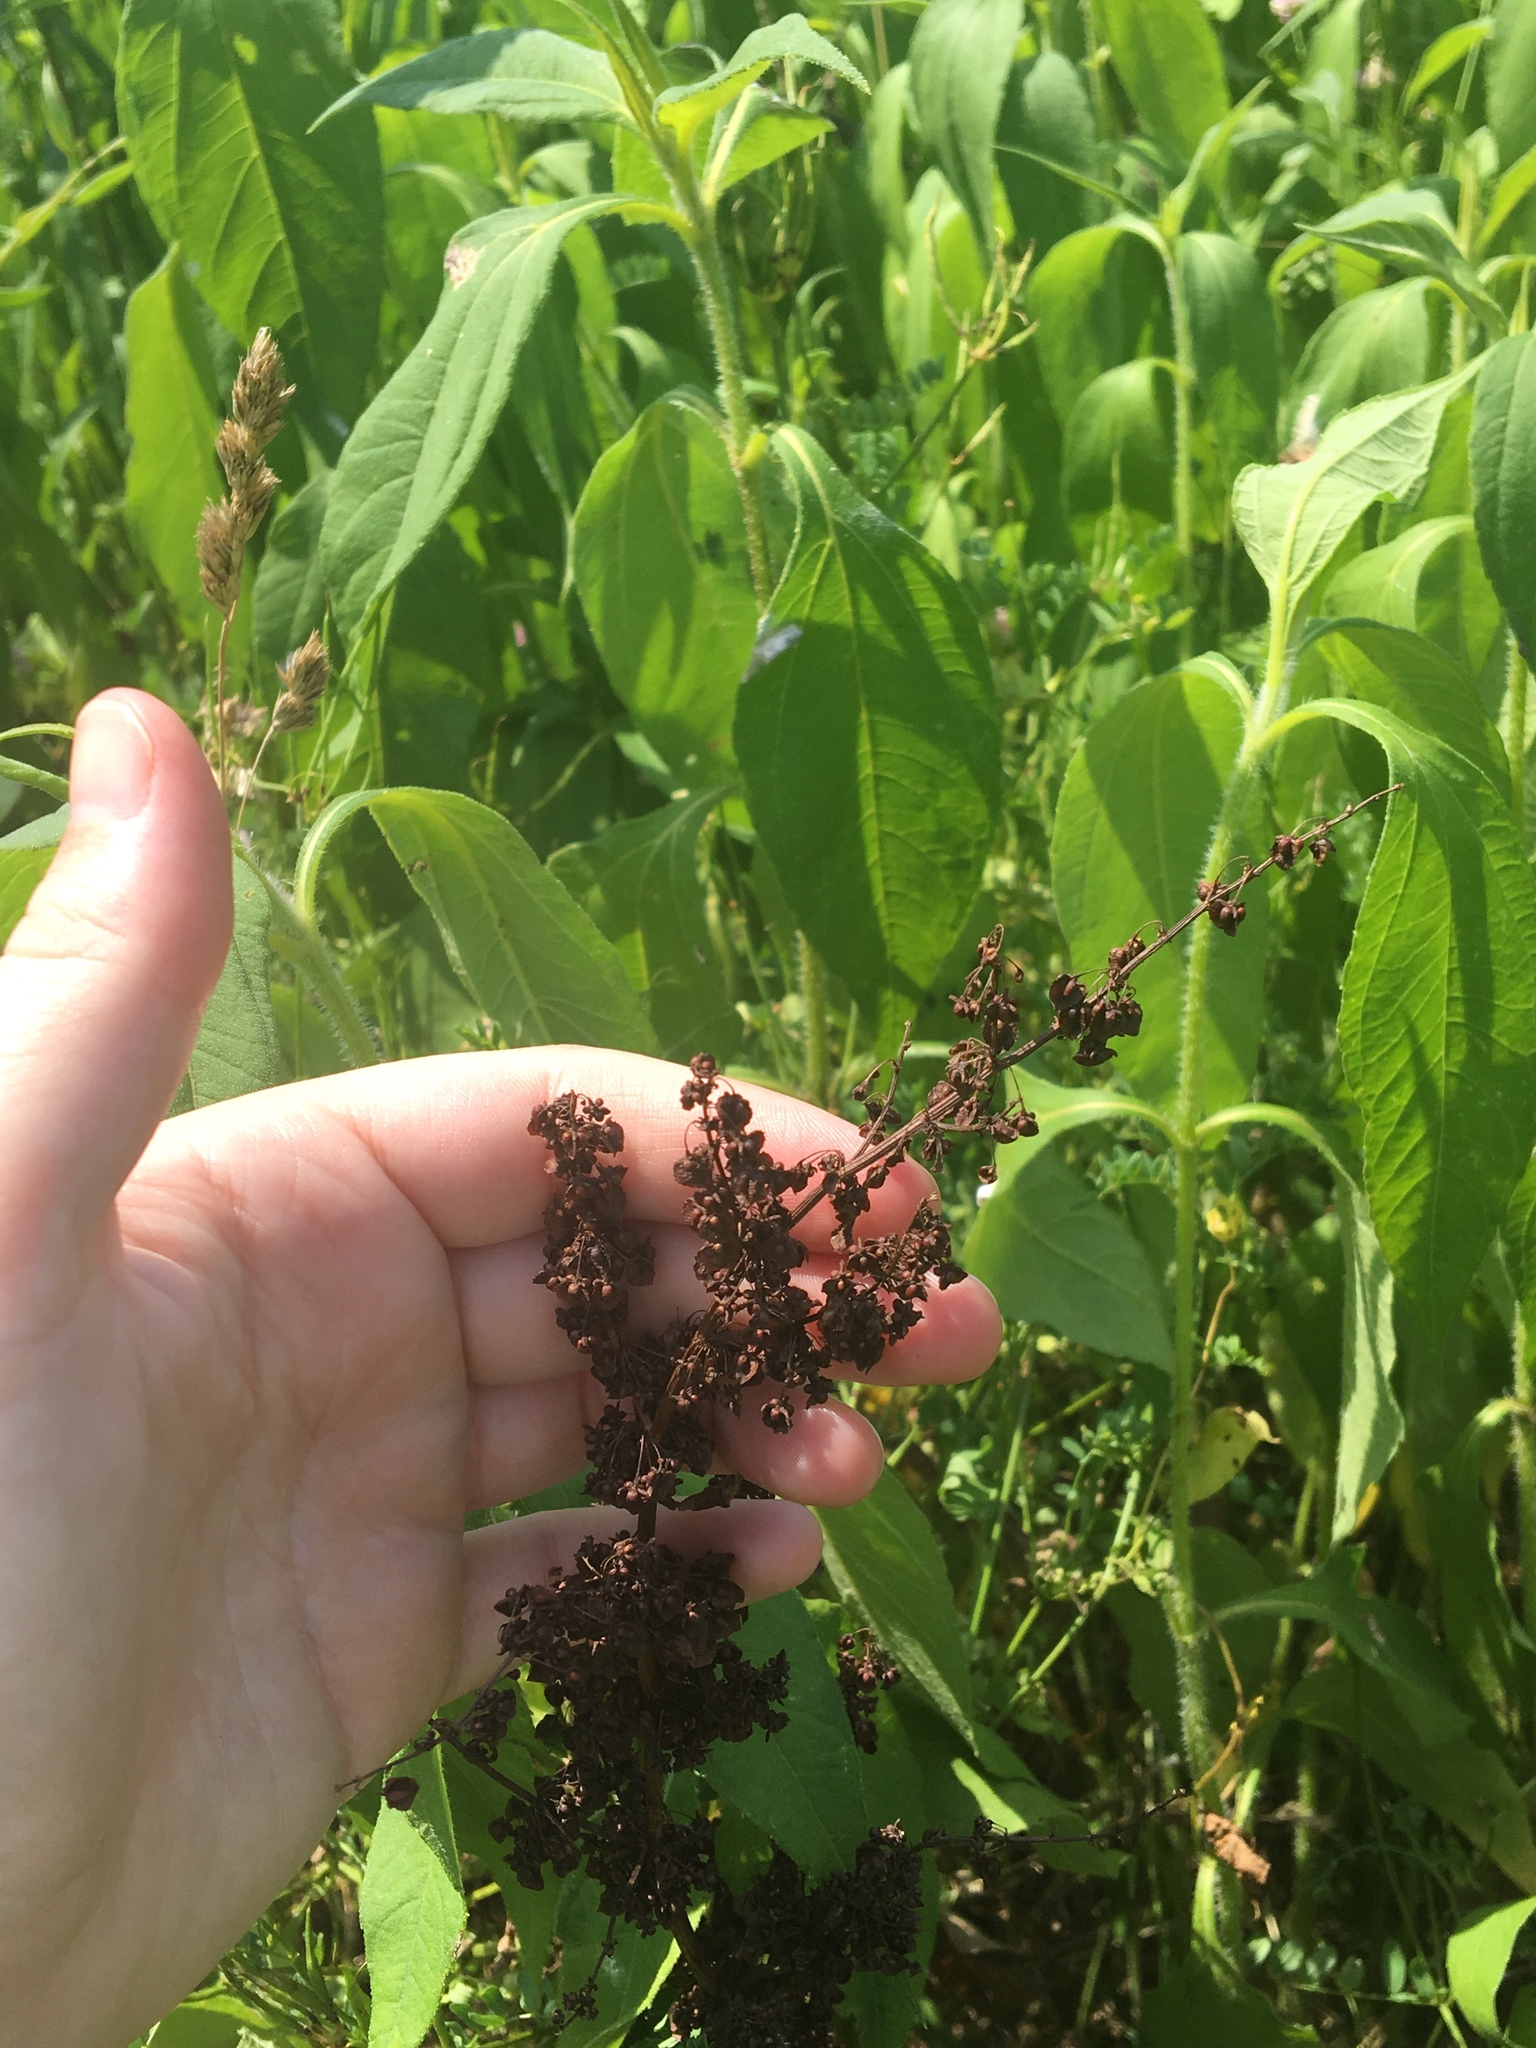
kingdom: Plantae
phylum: Tracheophyta
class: Magnoliopsida
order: Caryophyllales
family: Polygonaceae
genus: Rumex
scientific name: Rumex crispus
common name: Curled dock
